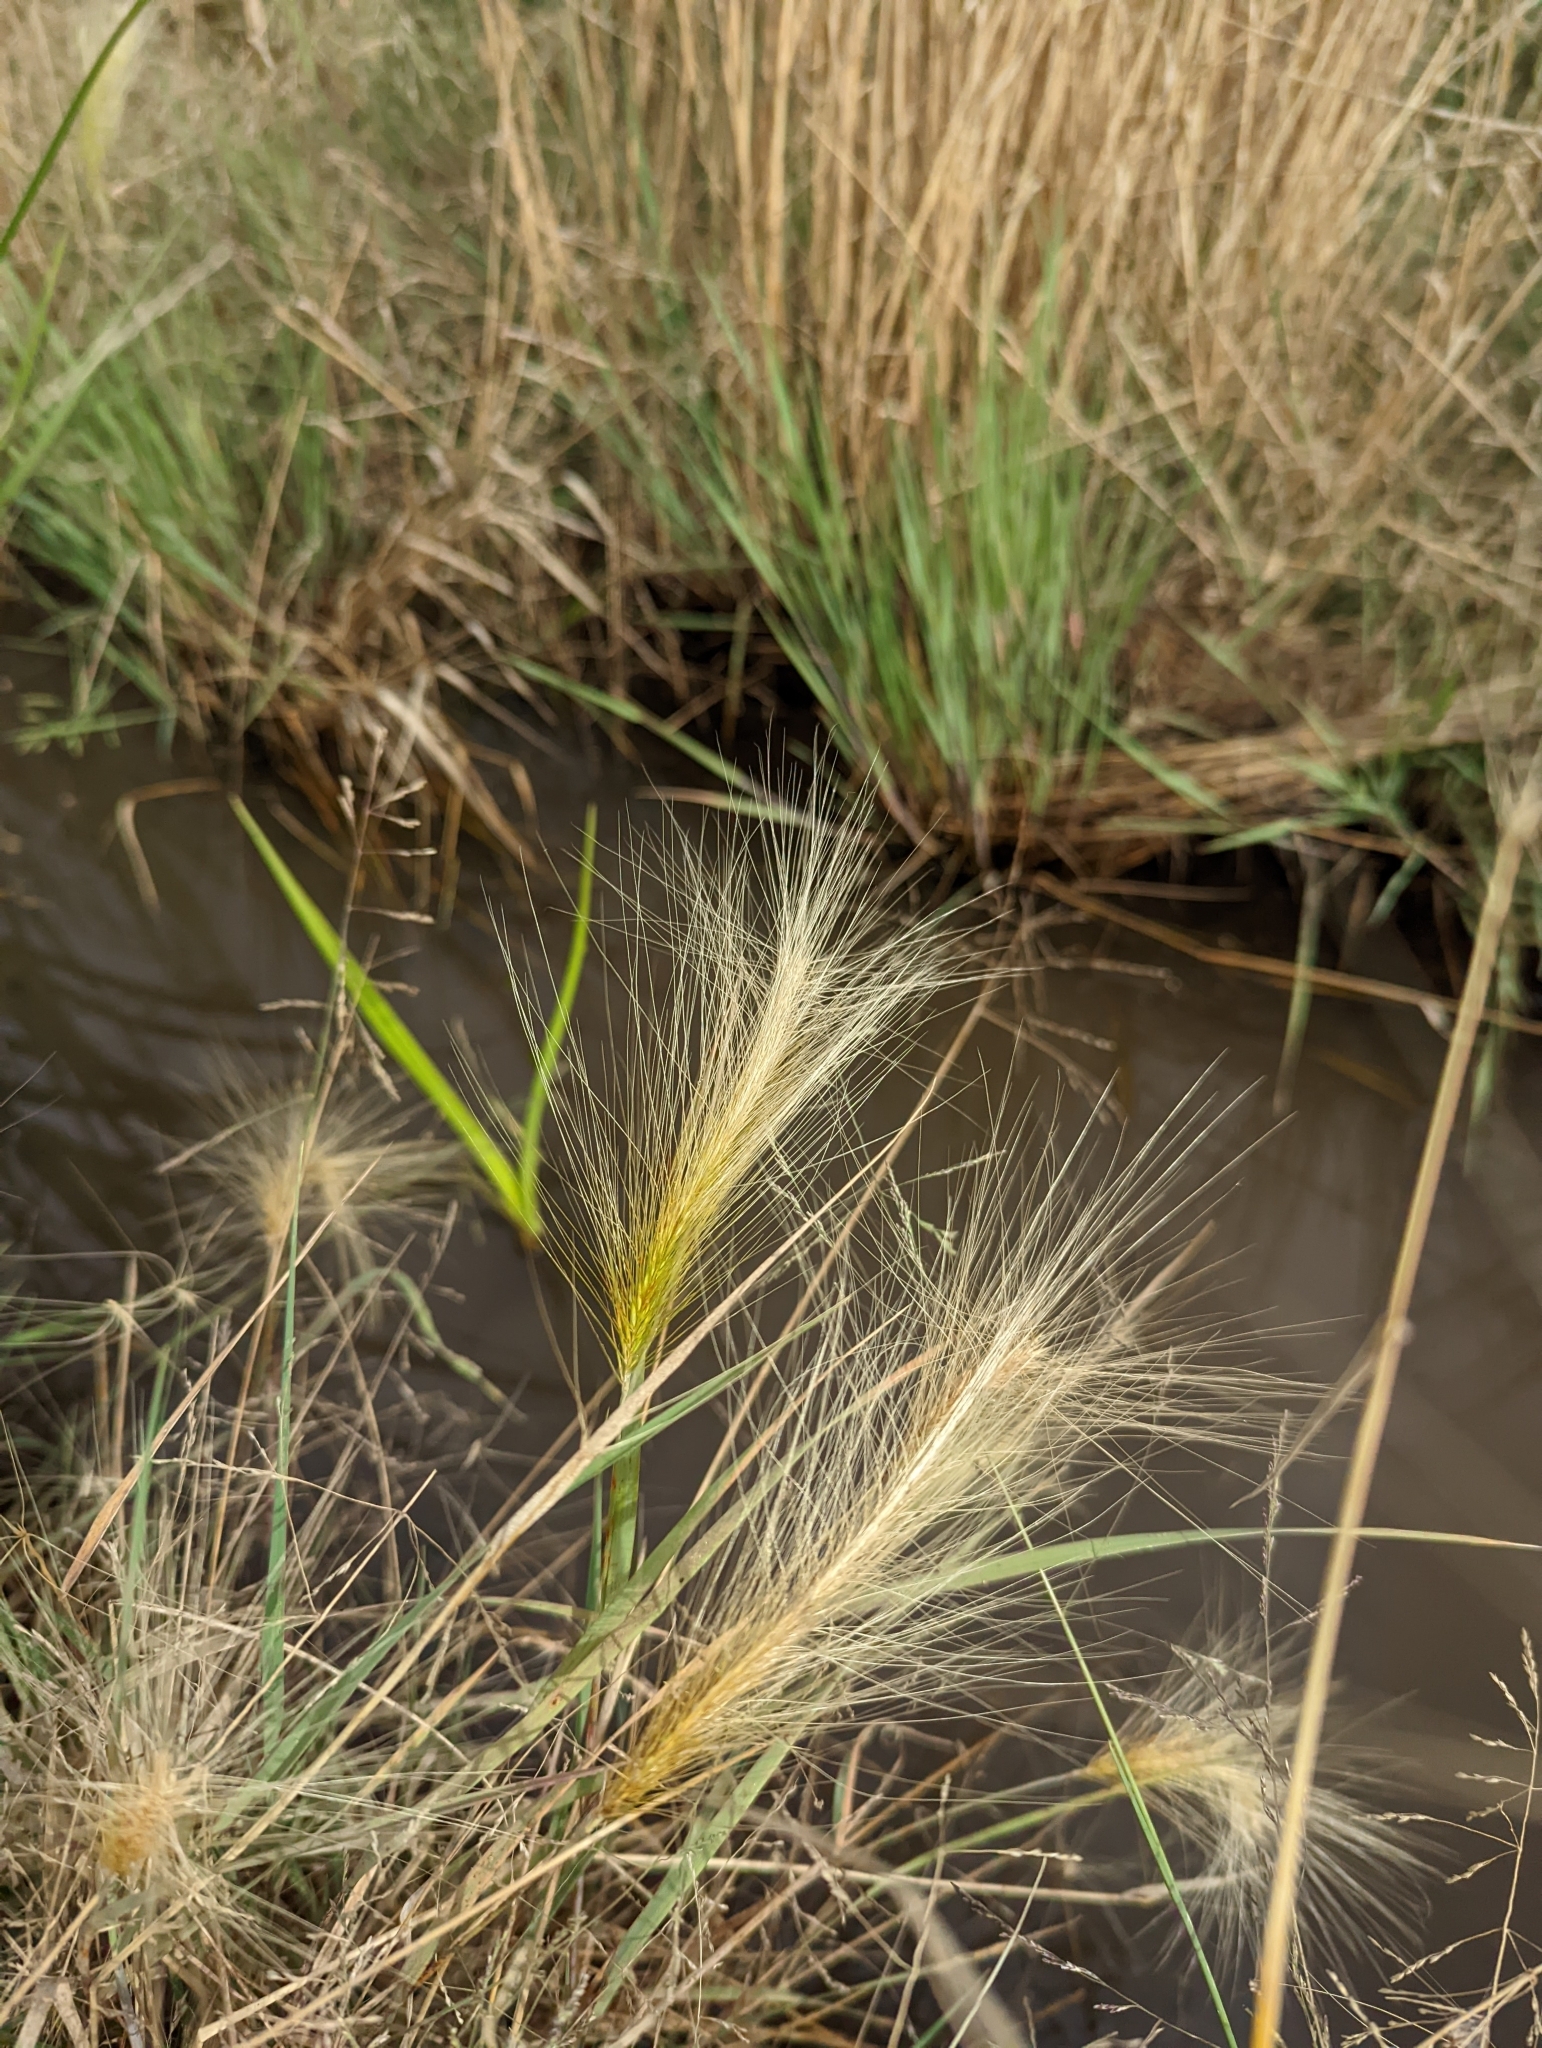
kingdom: Plantae
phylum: Tracheophyta
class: Liliopsida
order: Poales
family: Poaceae
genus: Hordeum
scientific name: Hordeum jubatum
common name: Foxtail barley
